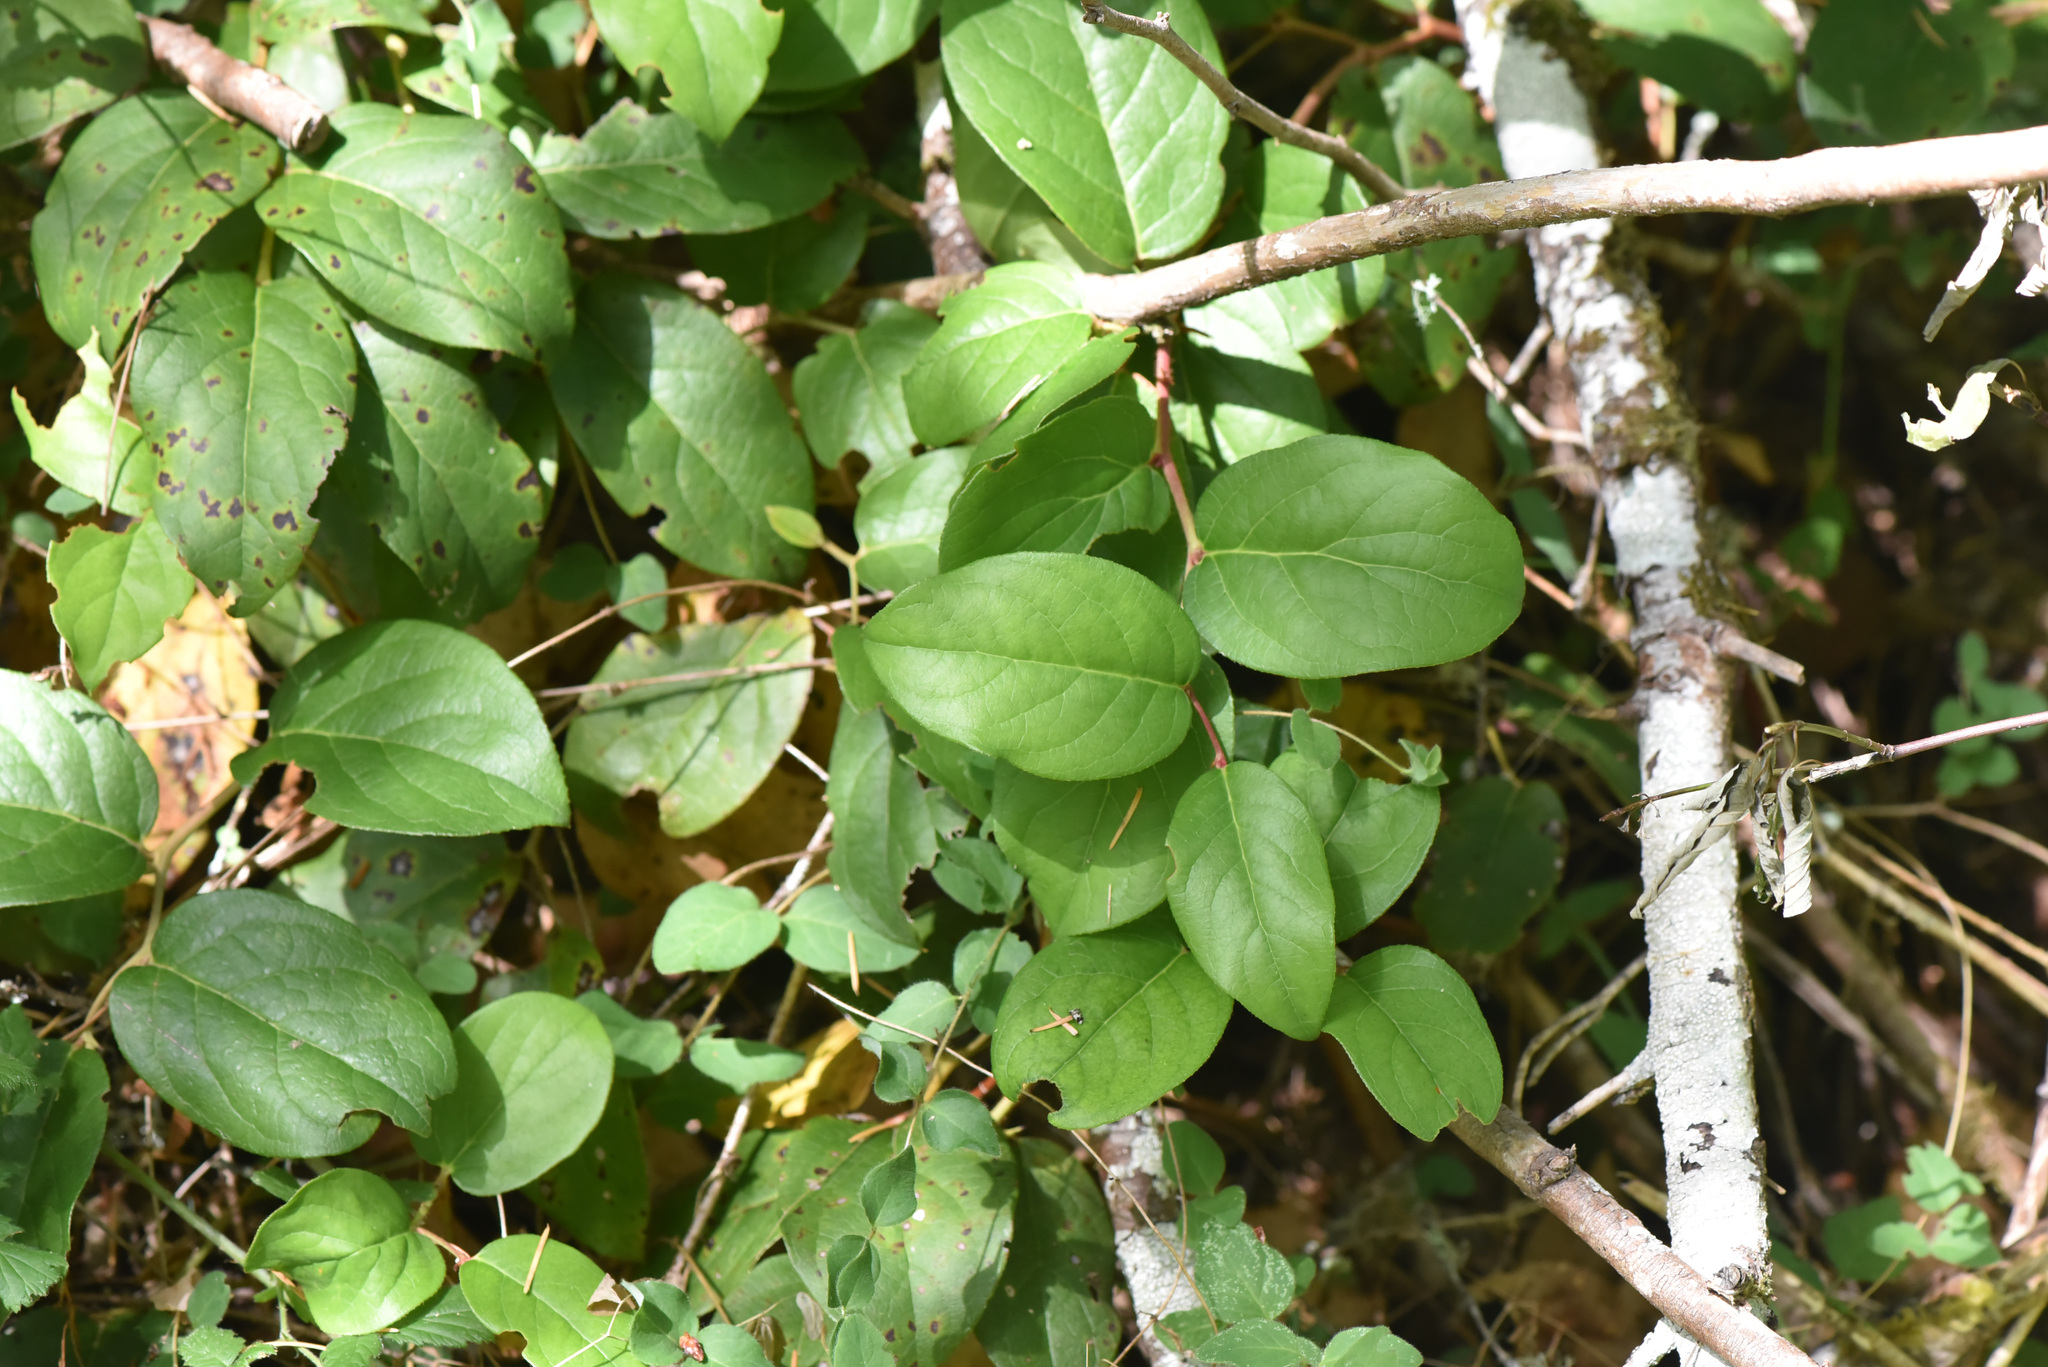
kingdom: Plantae
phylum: Tracheophyta
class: Magnoliopsida
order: Ericales
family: Ericaceae
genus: Gaultheria
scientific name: Gaultheria shallon
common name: Shallon
